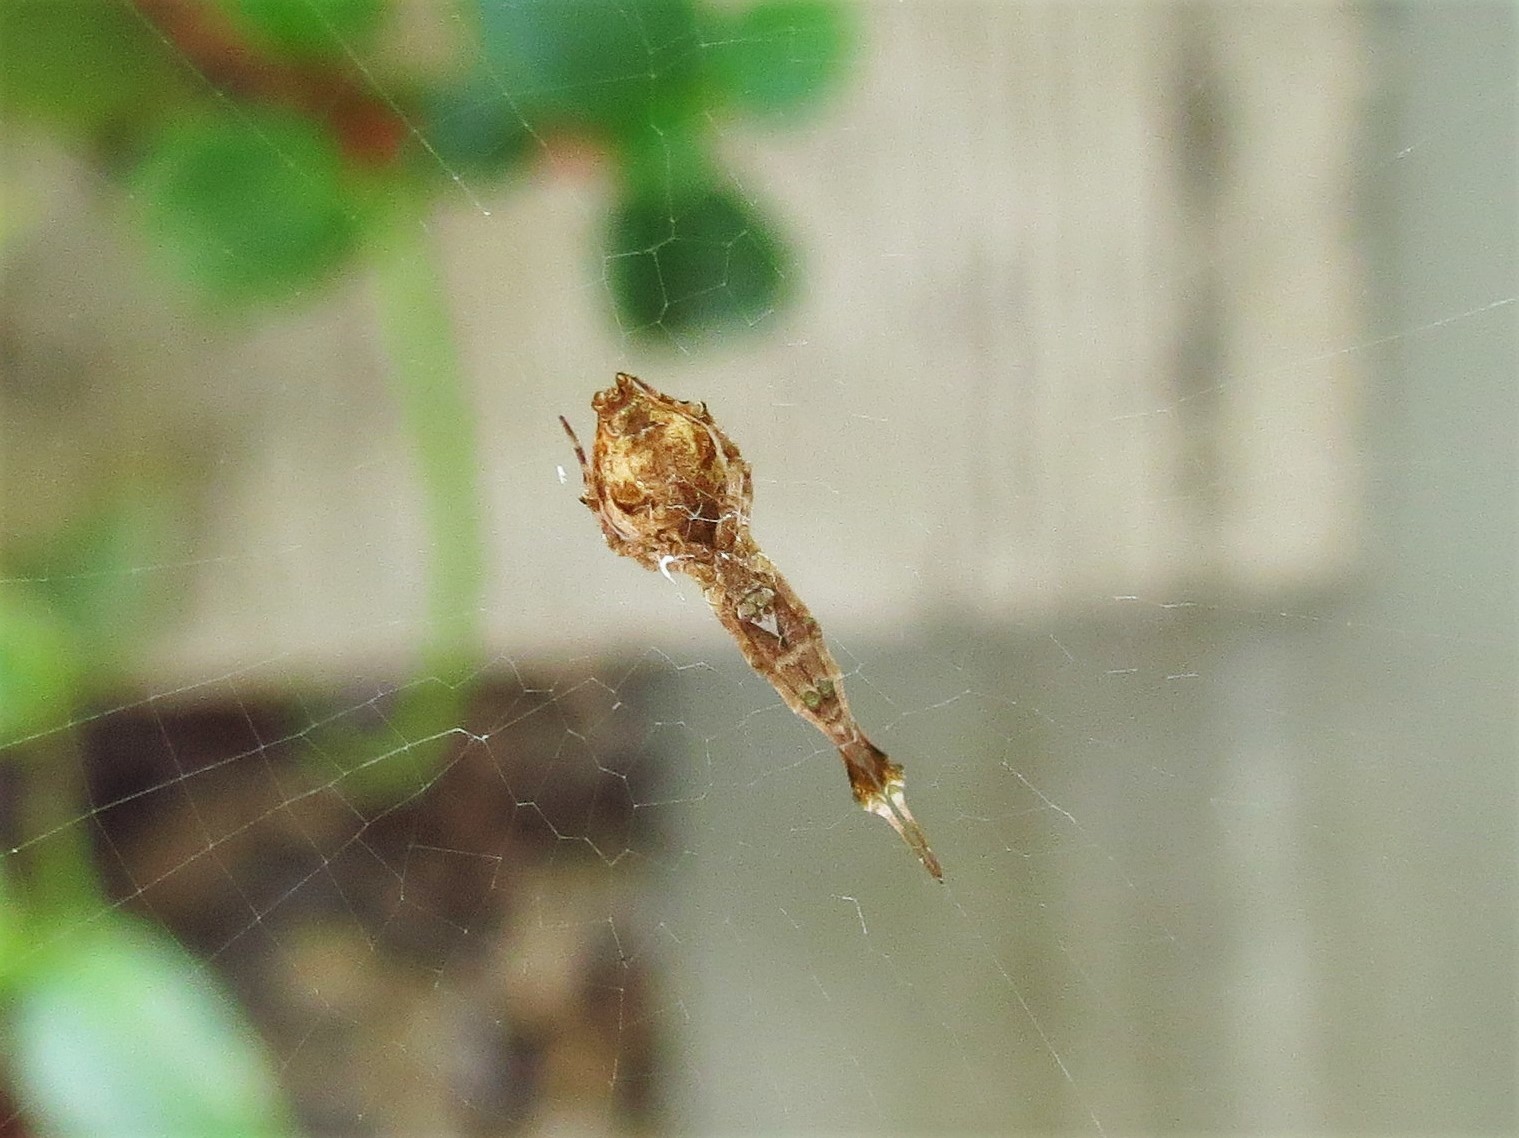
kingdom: Animalia
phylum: Arthropoda
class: Arachnida
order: Araneae
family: Uloboridae
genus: Uloborus
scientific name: Uloborus glomosus
